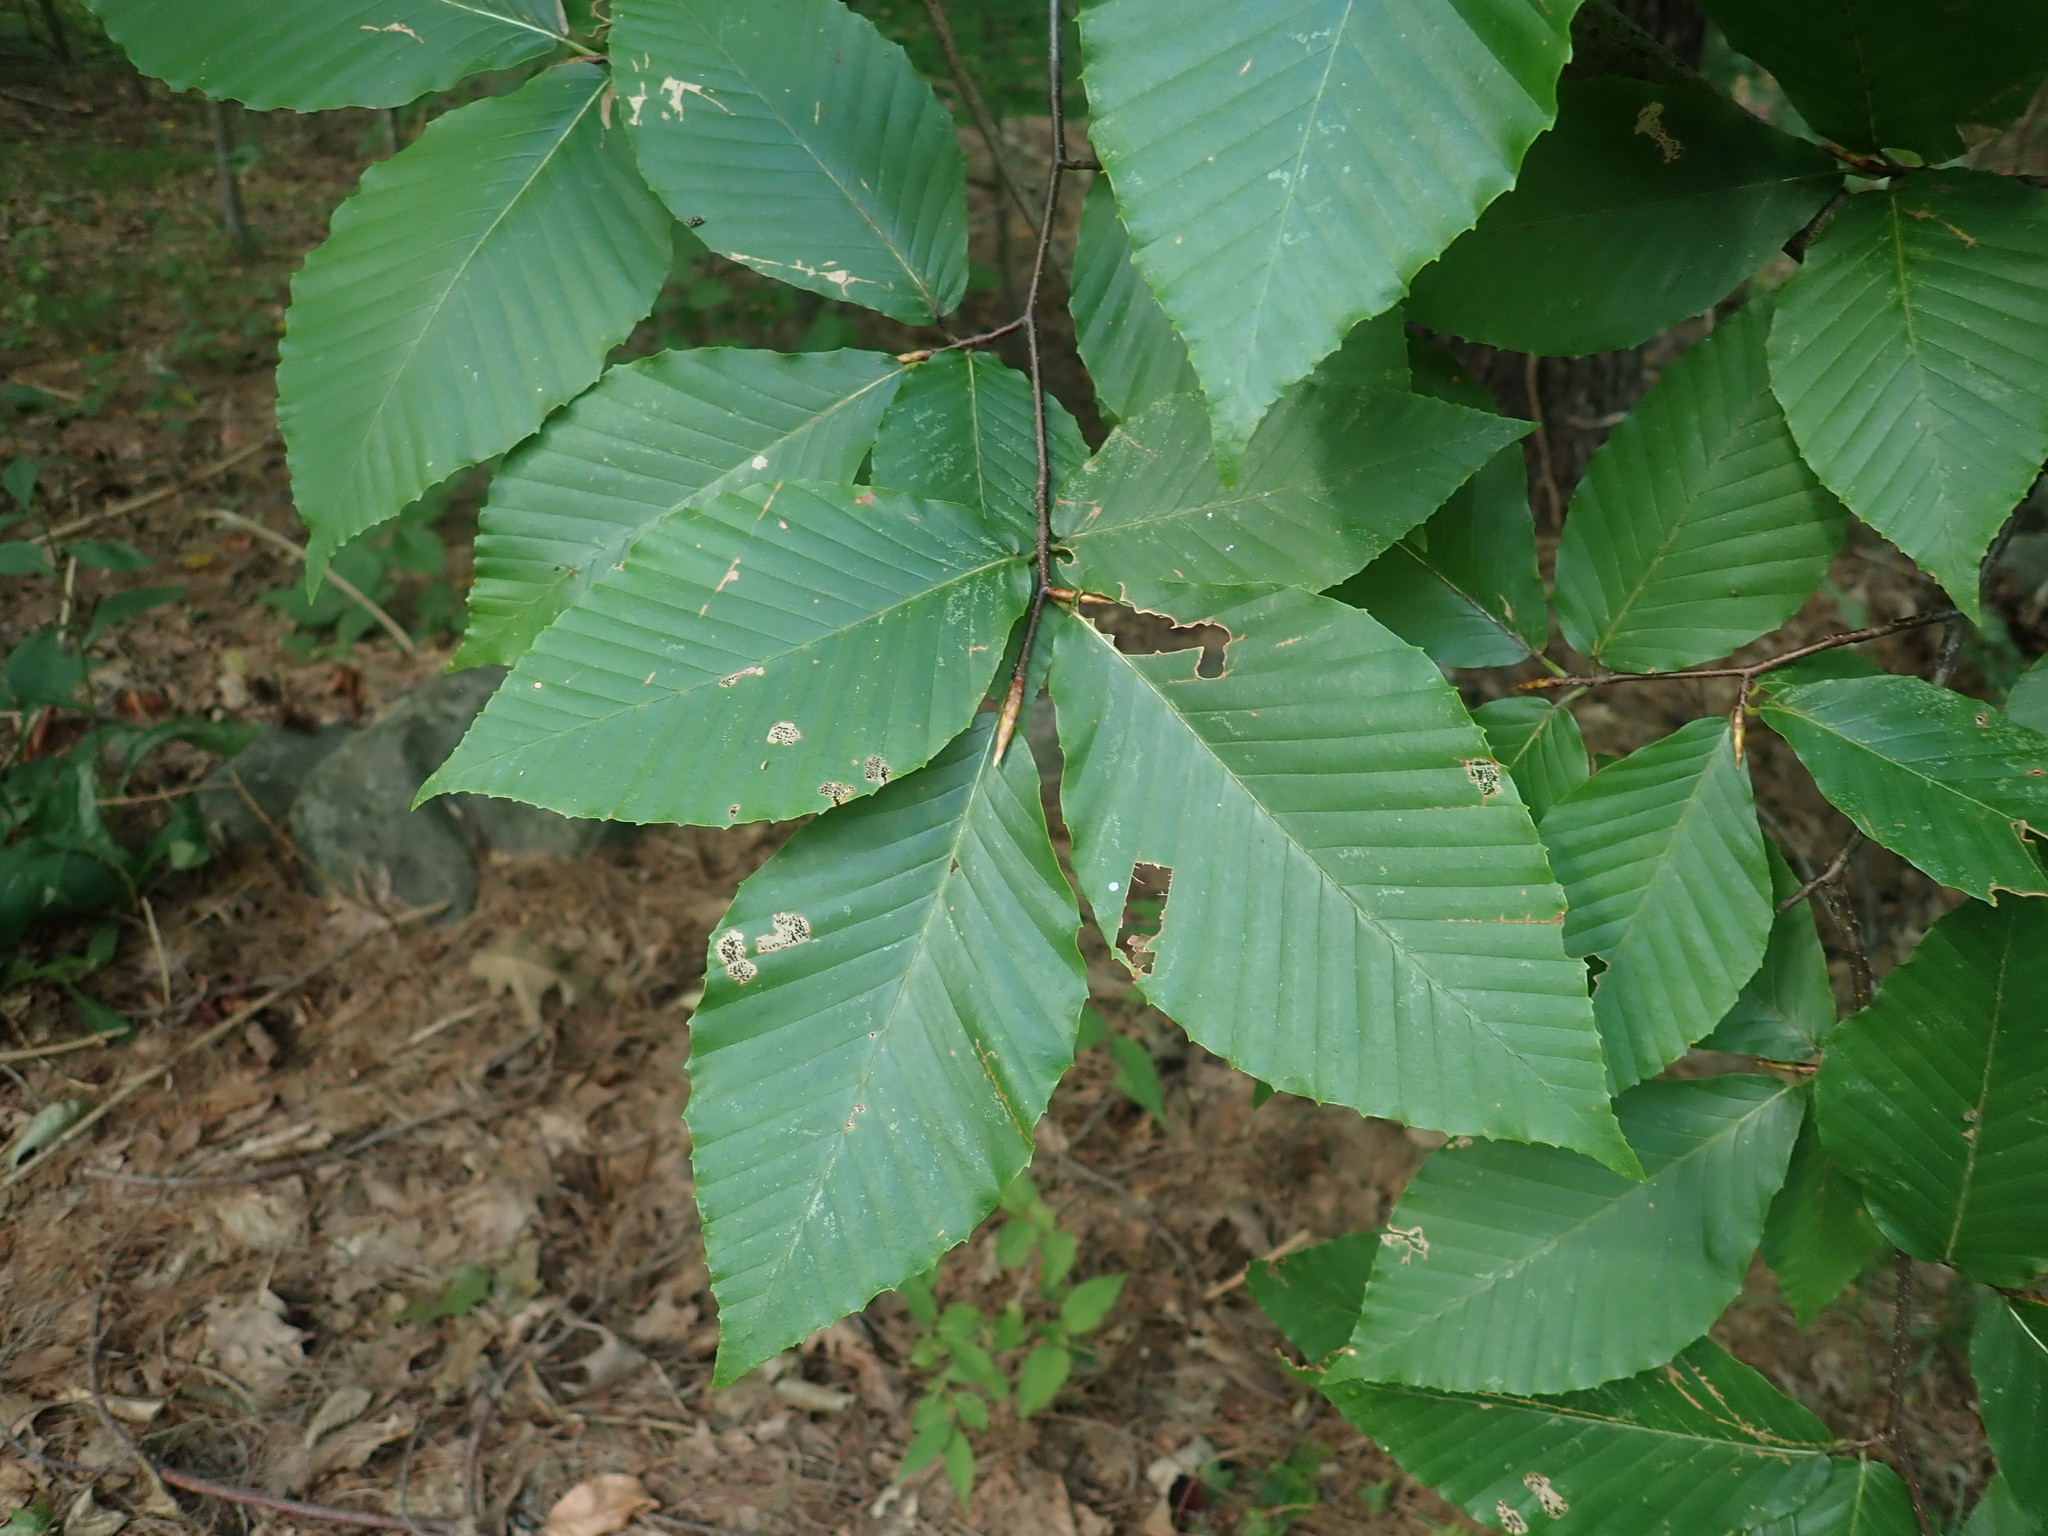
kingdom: Plantae
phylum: Tracheophyta
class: Magnoliopsida
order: Fagales
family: Fagaceae
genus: Fagus
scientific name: Fagus grandifolia
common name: American beech
